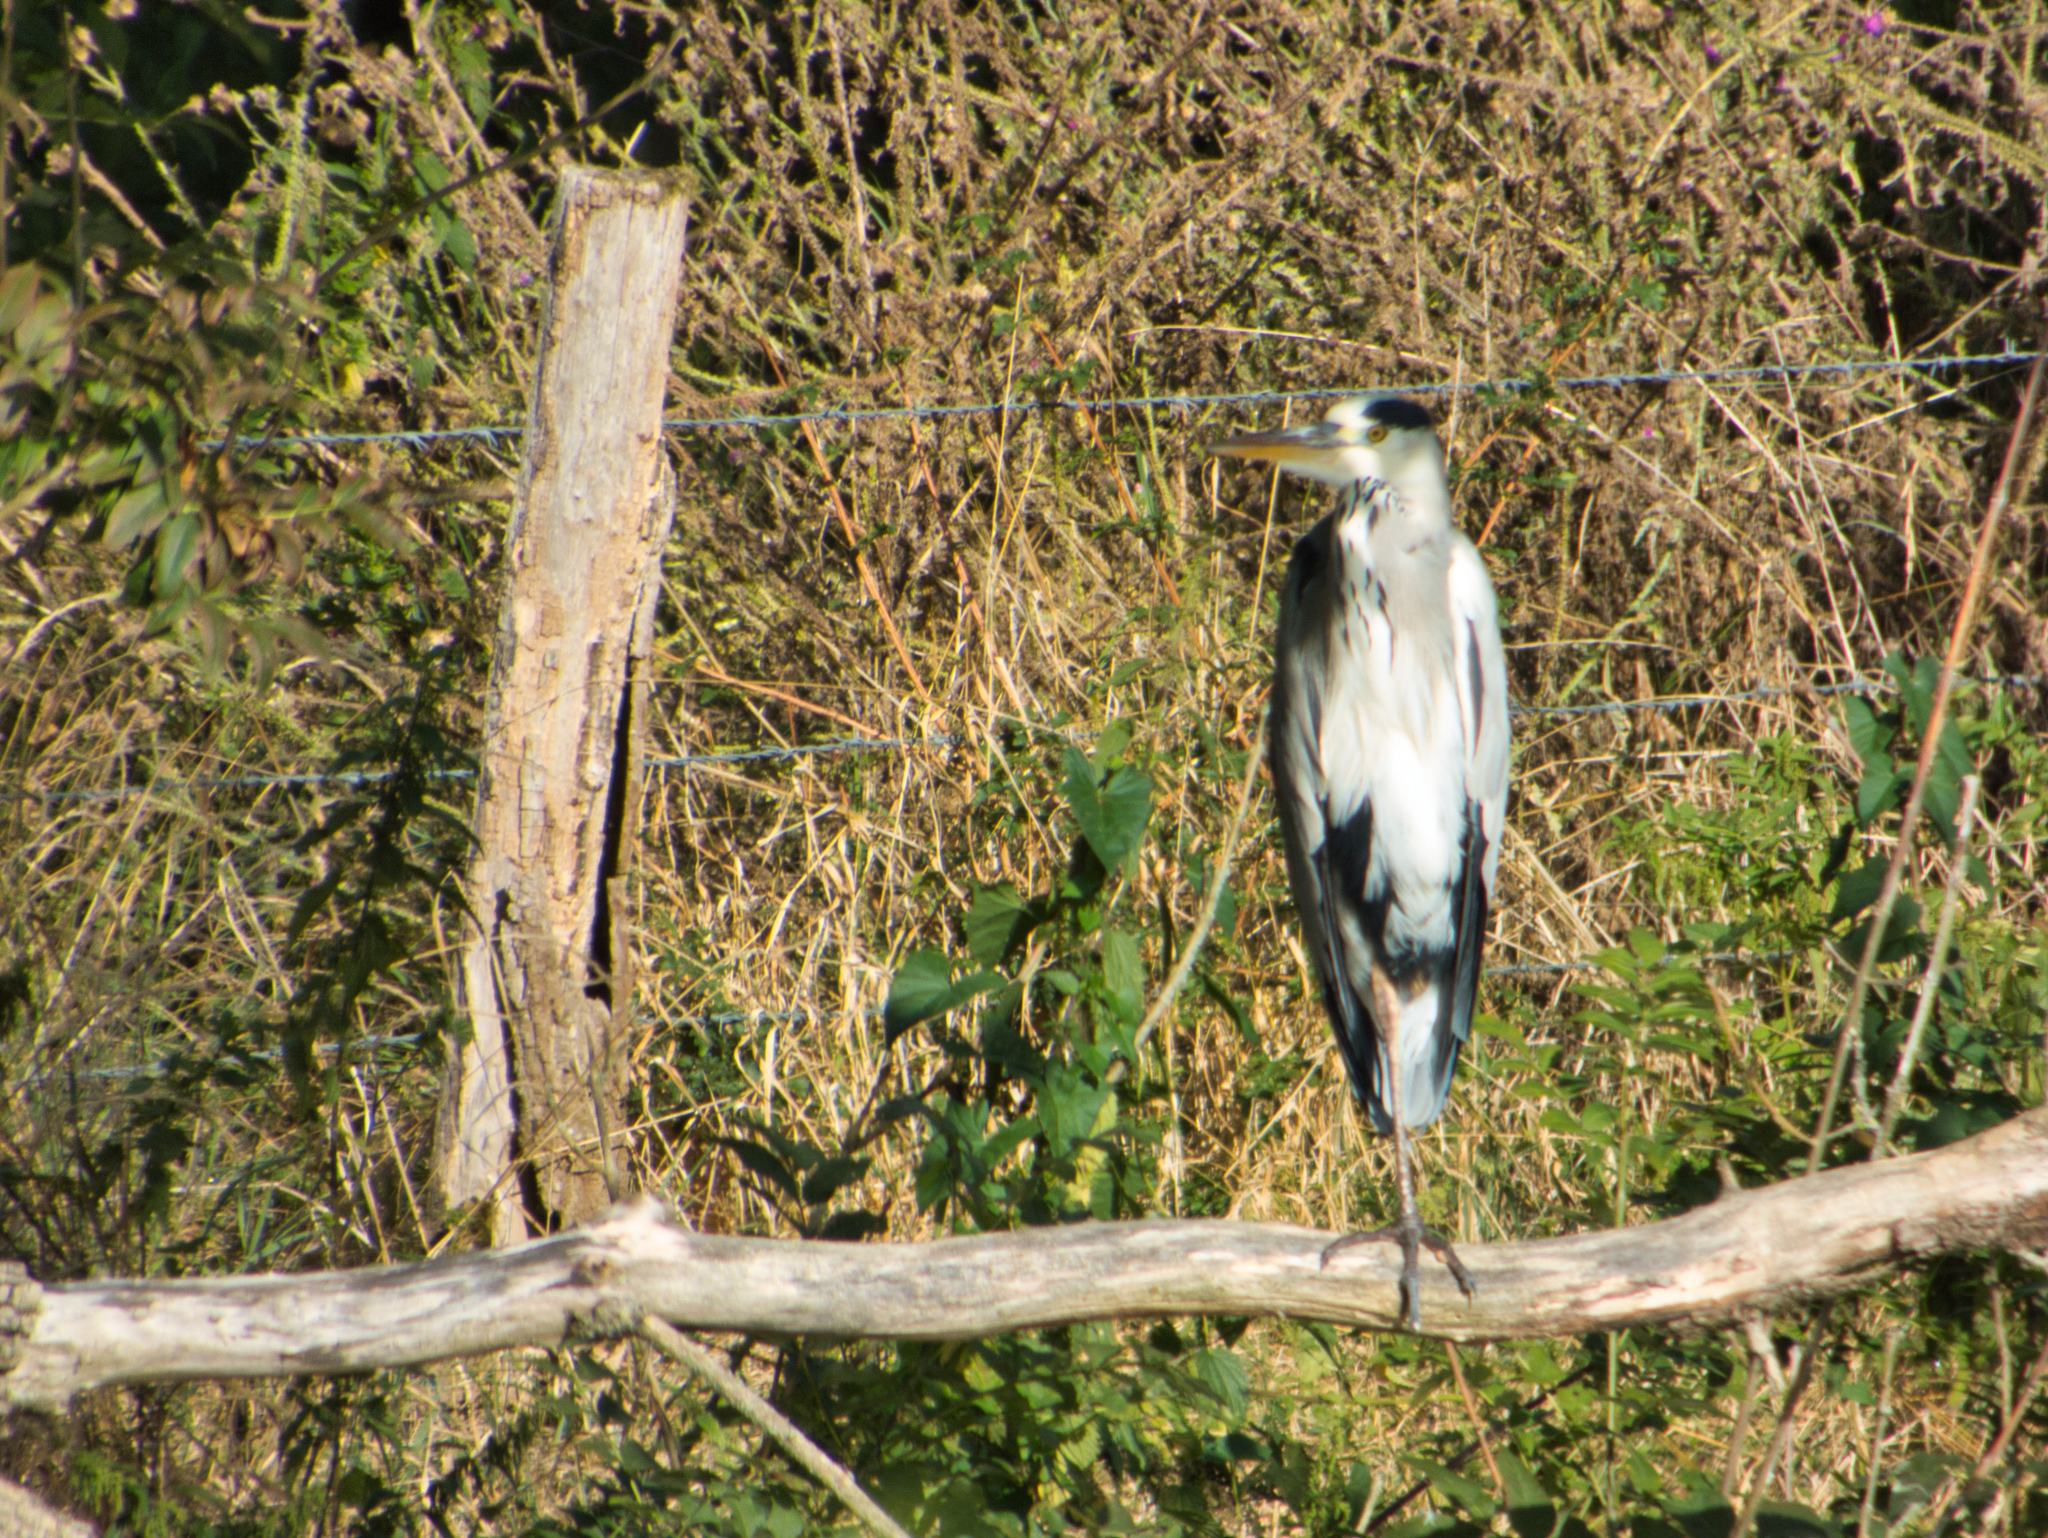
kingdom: Animalia
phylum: Chordata
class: Aves
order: Pelecaniformes
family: Ardeidae
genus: Ardea
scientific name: Ardea cinerea
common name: Grey heron
